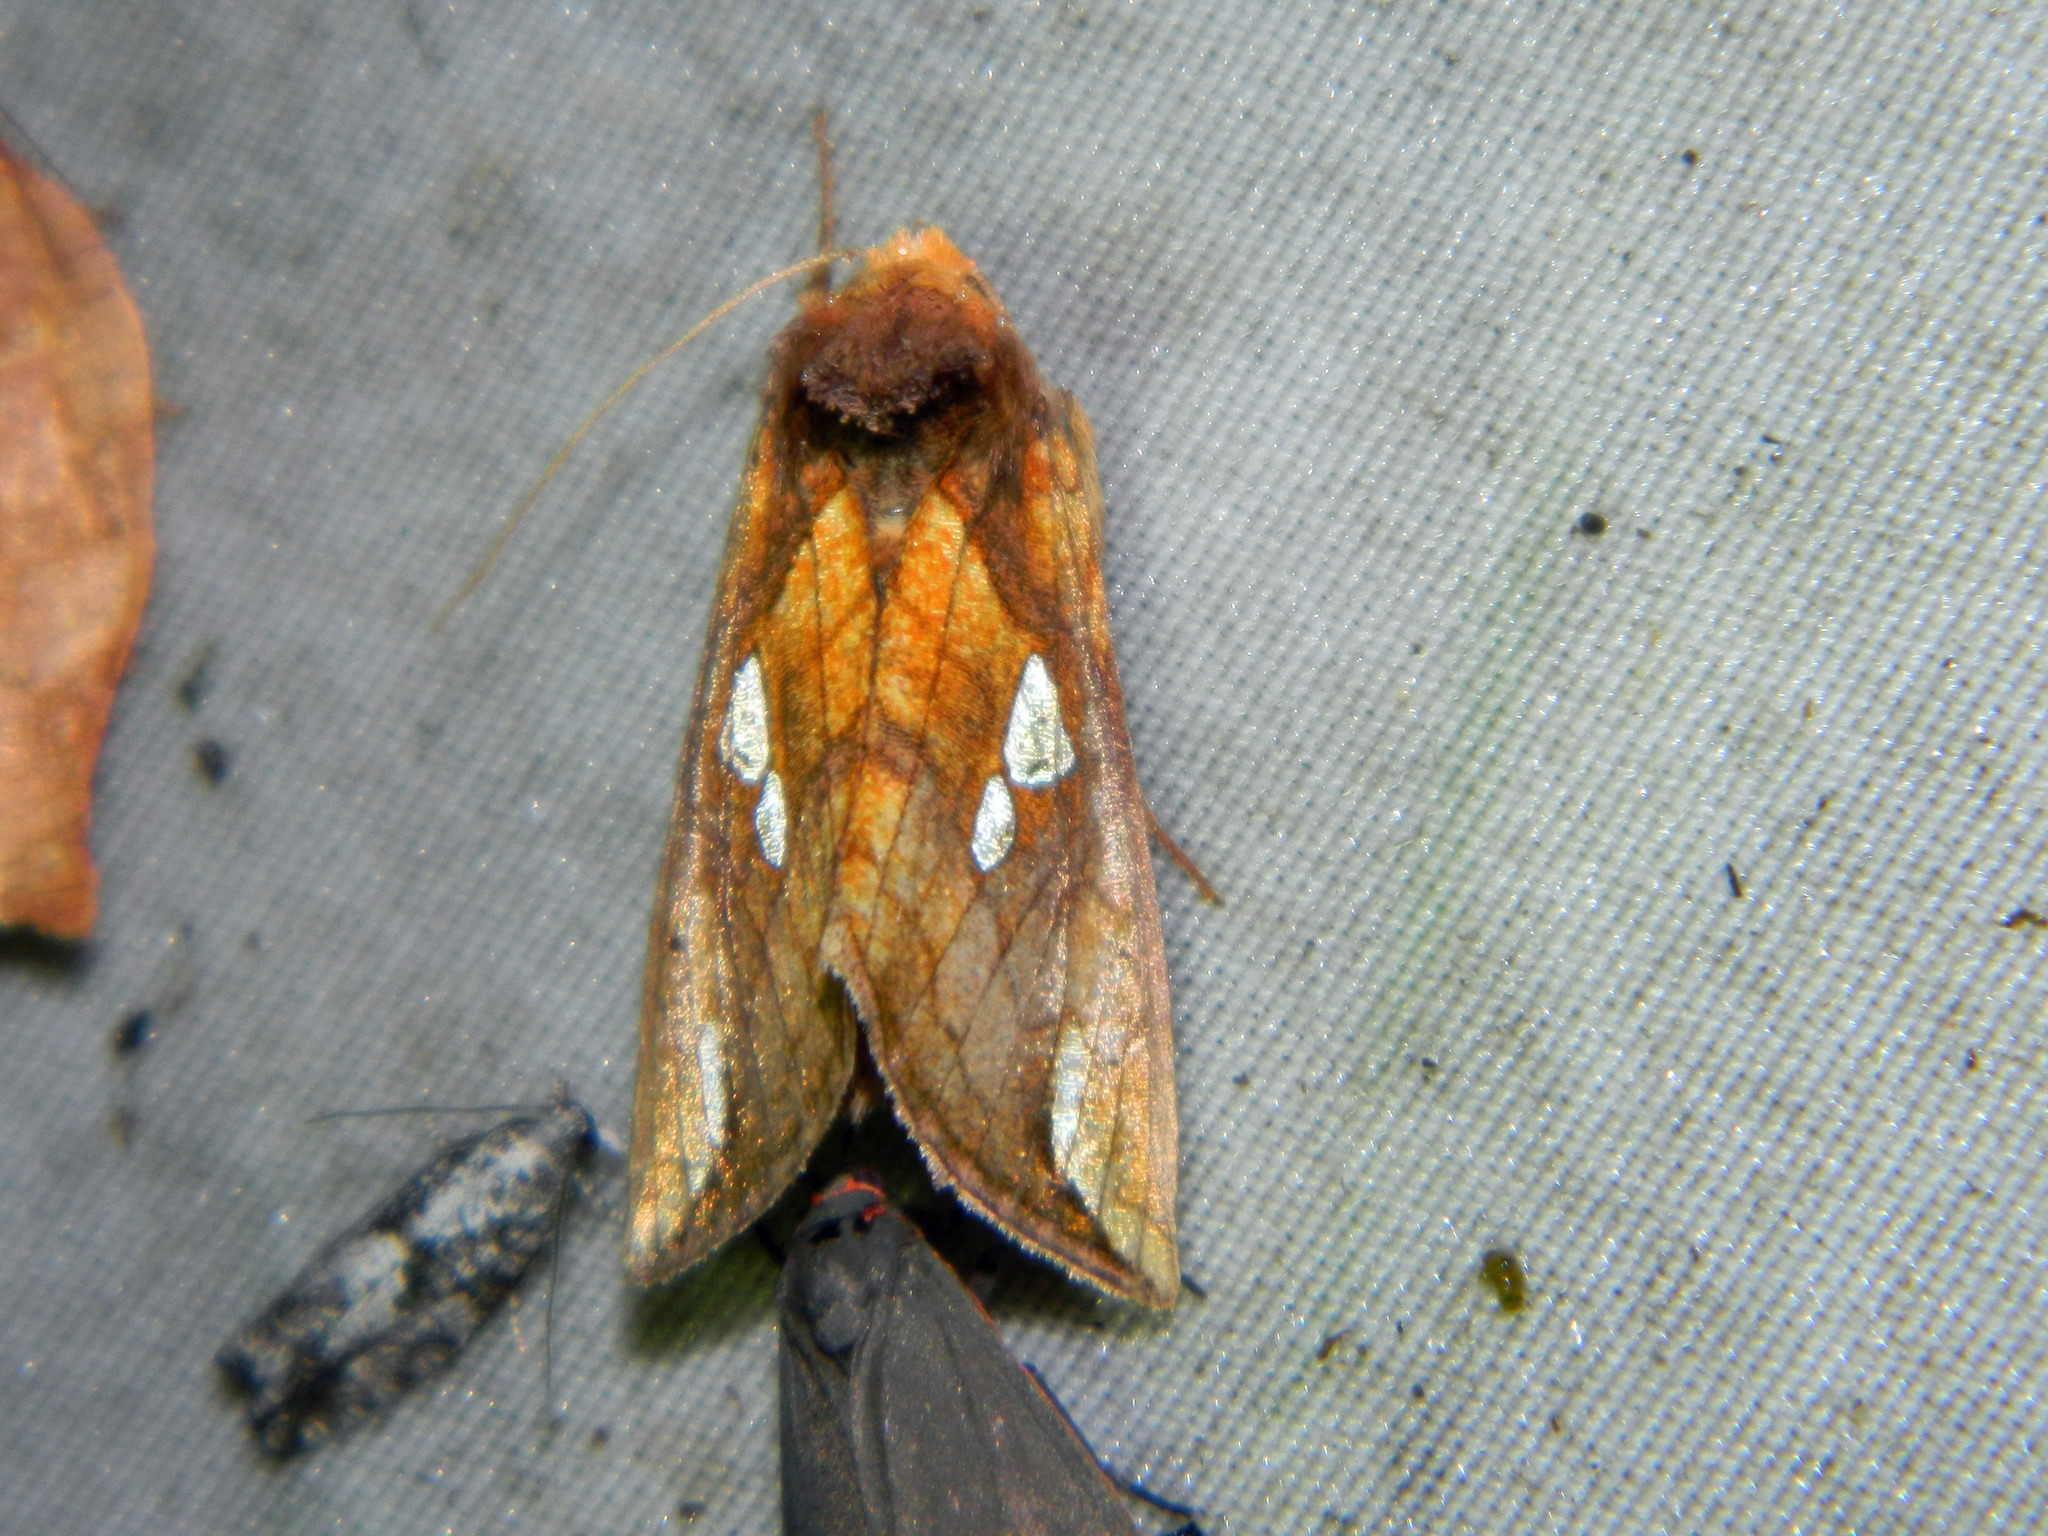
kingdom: Animalia
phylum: Arthropoda
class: Insecta
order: Lepidoptera
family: Noctuidae
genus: Plusia
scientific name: Plusia putnami
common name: Lempke's gold spot
